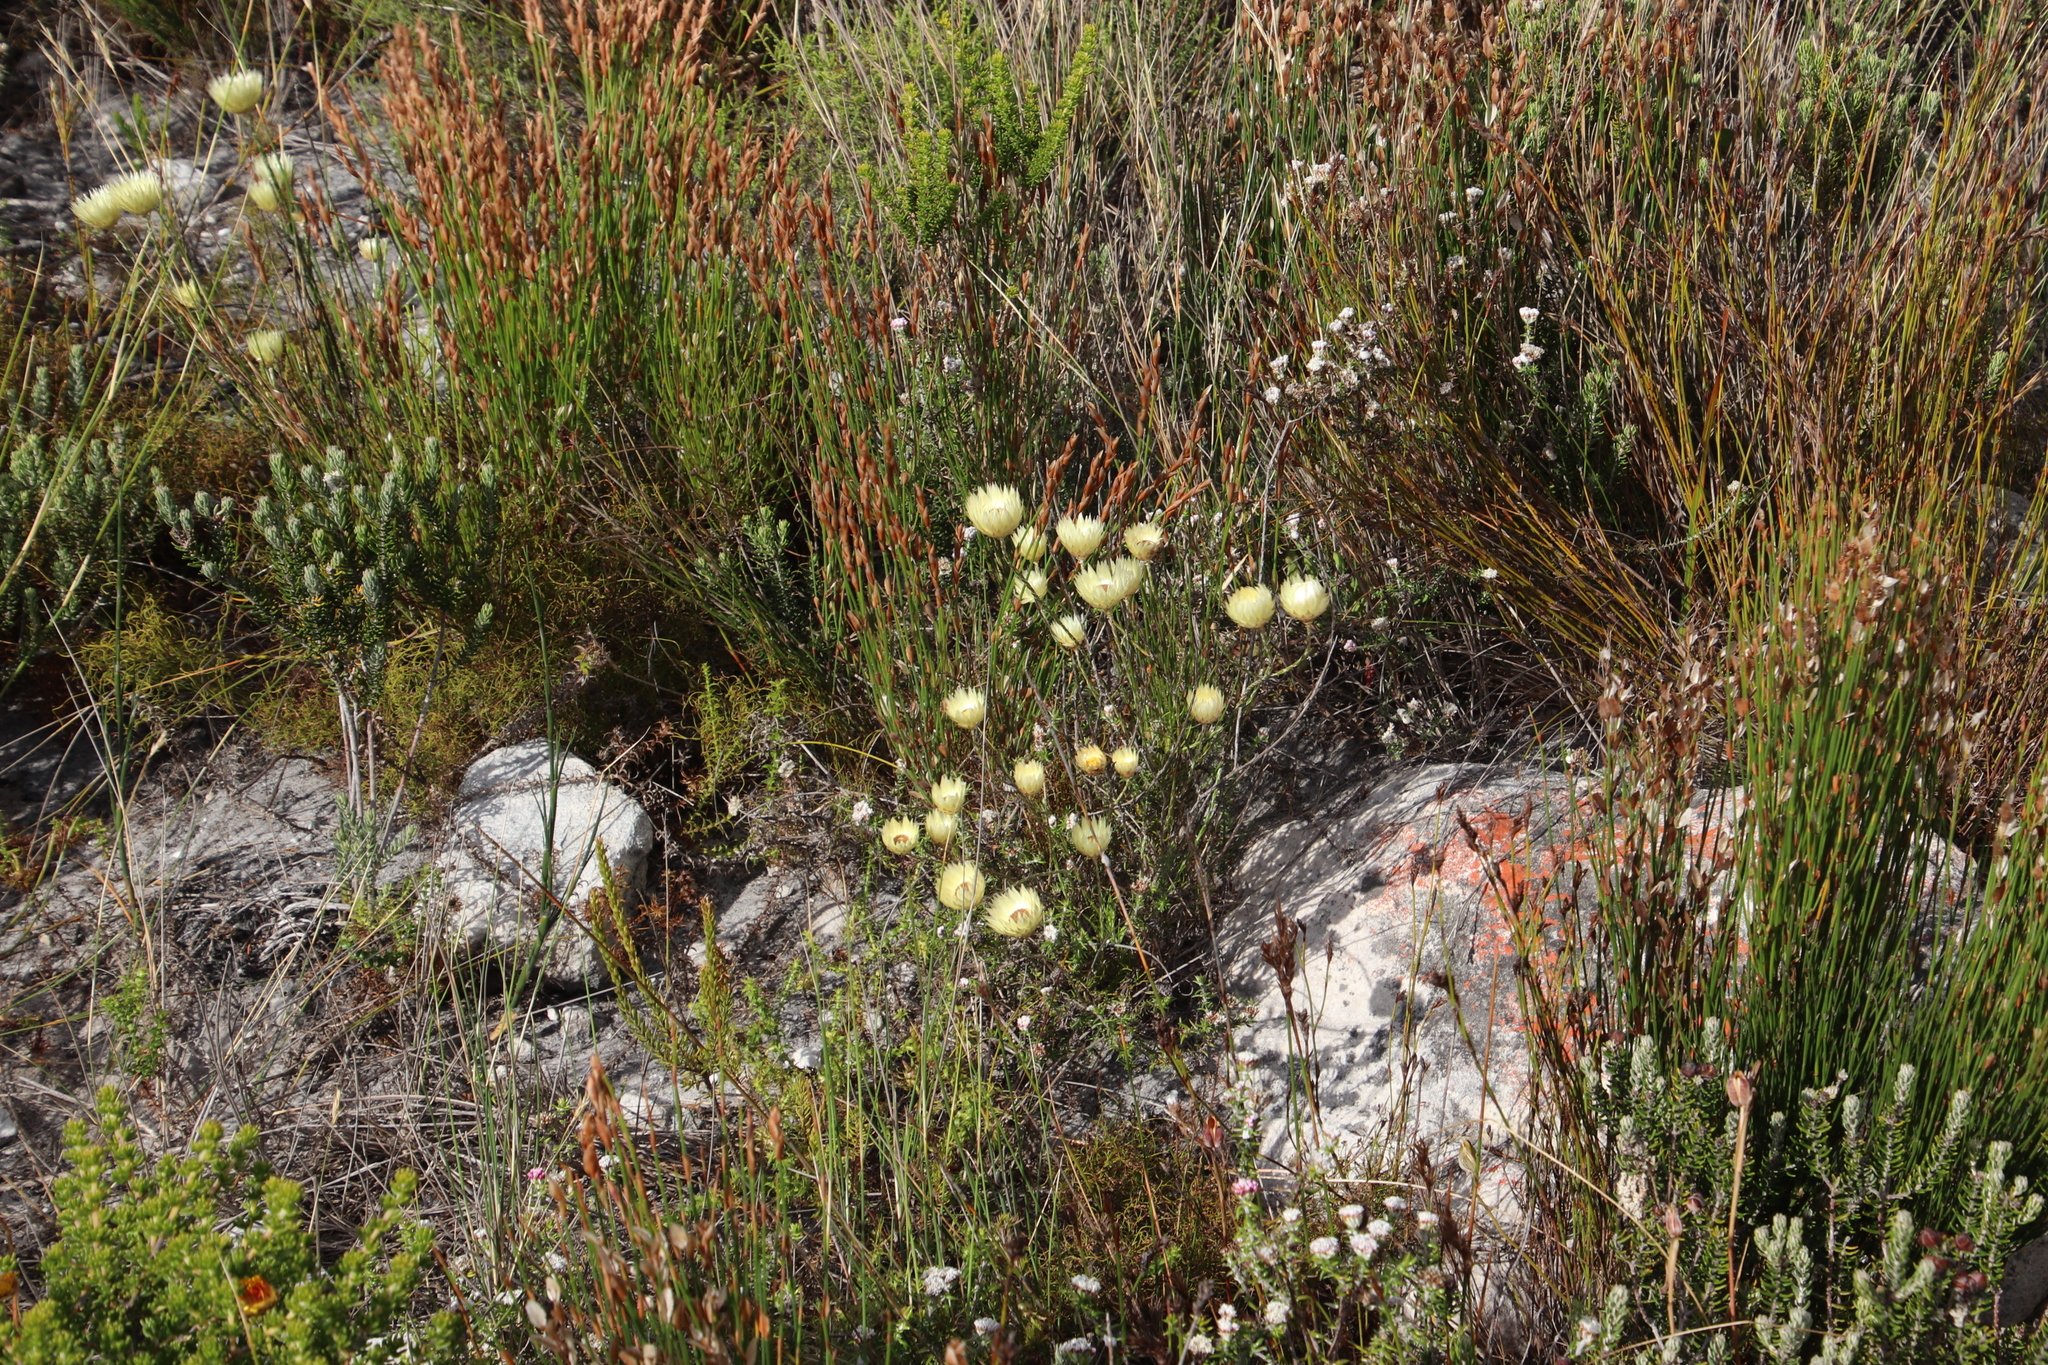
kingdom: Plantae
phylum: Tracheophyta
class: Magnoliopsida
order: Asterales
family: Asteraceae
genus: Edmondia
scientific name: Edmondia sesamoides
